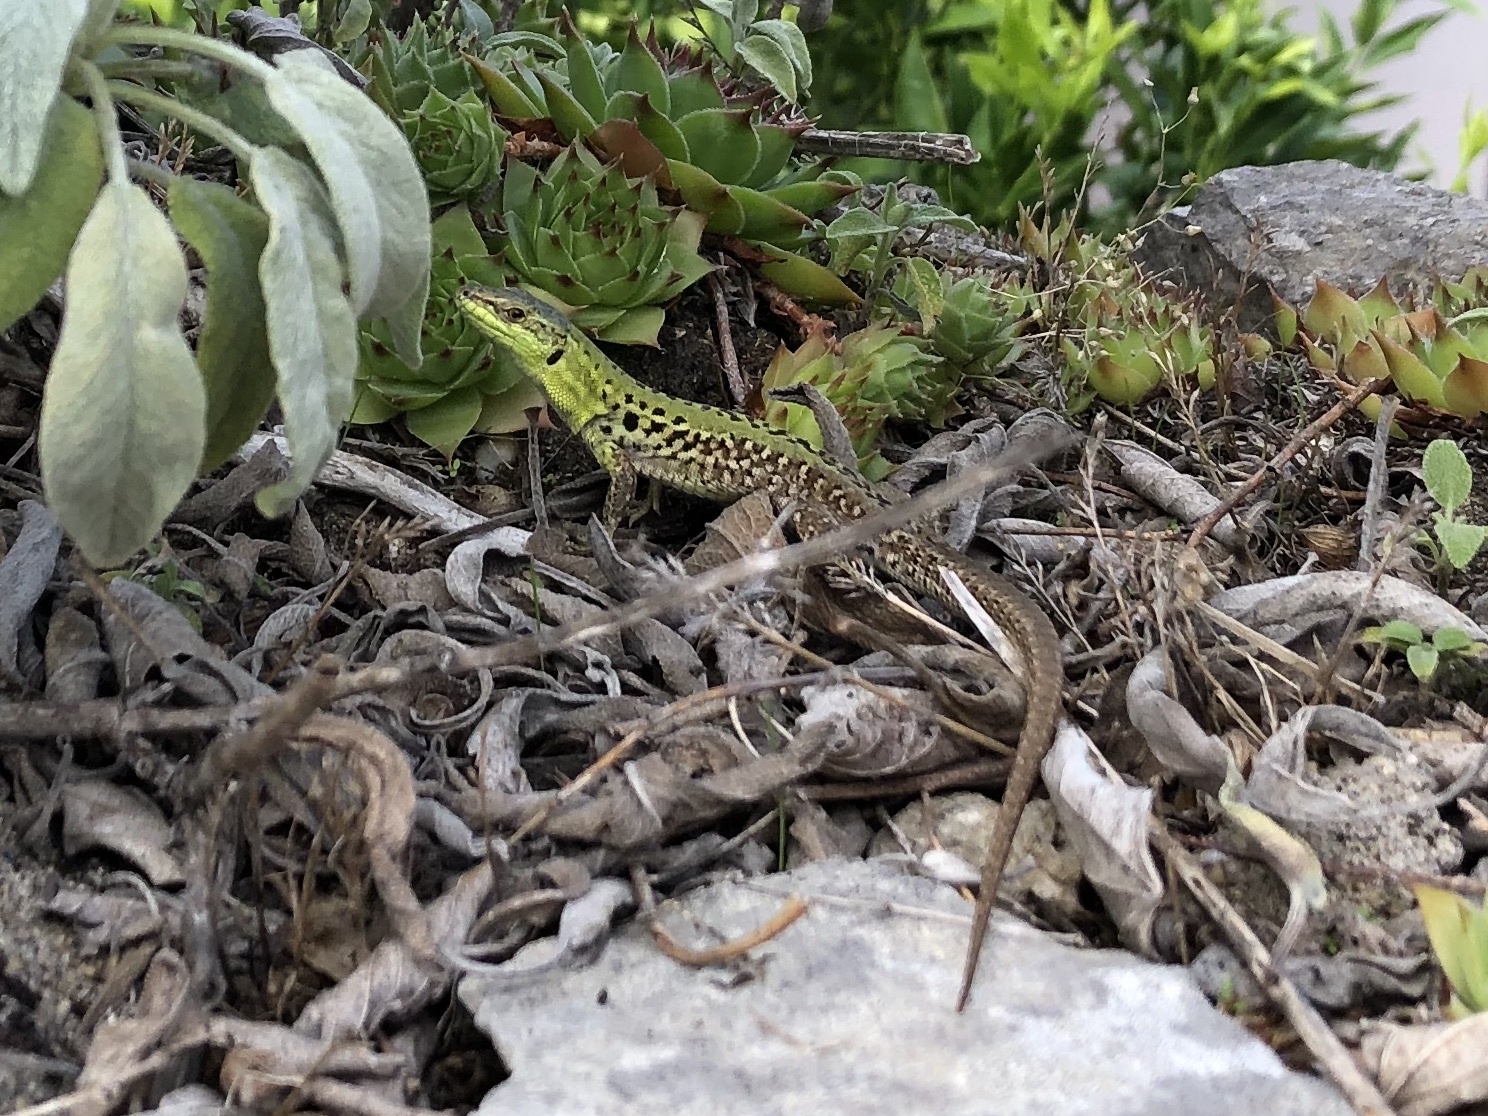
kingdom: Animalia
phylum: Chordata
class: Squamata
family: Lacertidae
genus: Podarcis
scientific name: Podarcis siculus
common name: Italian wall lizard
